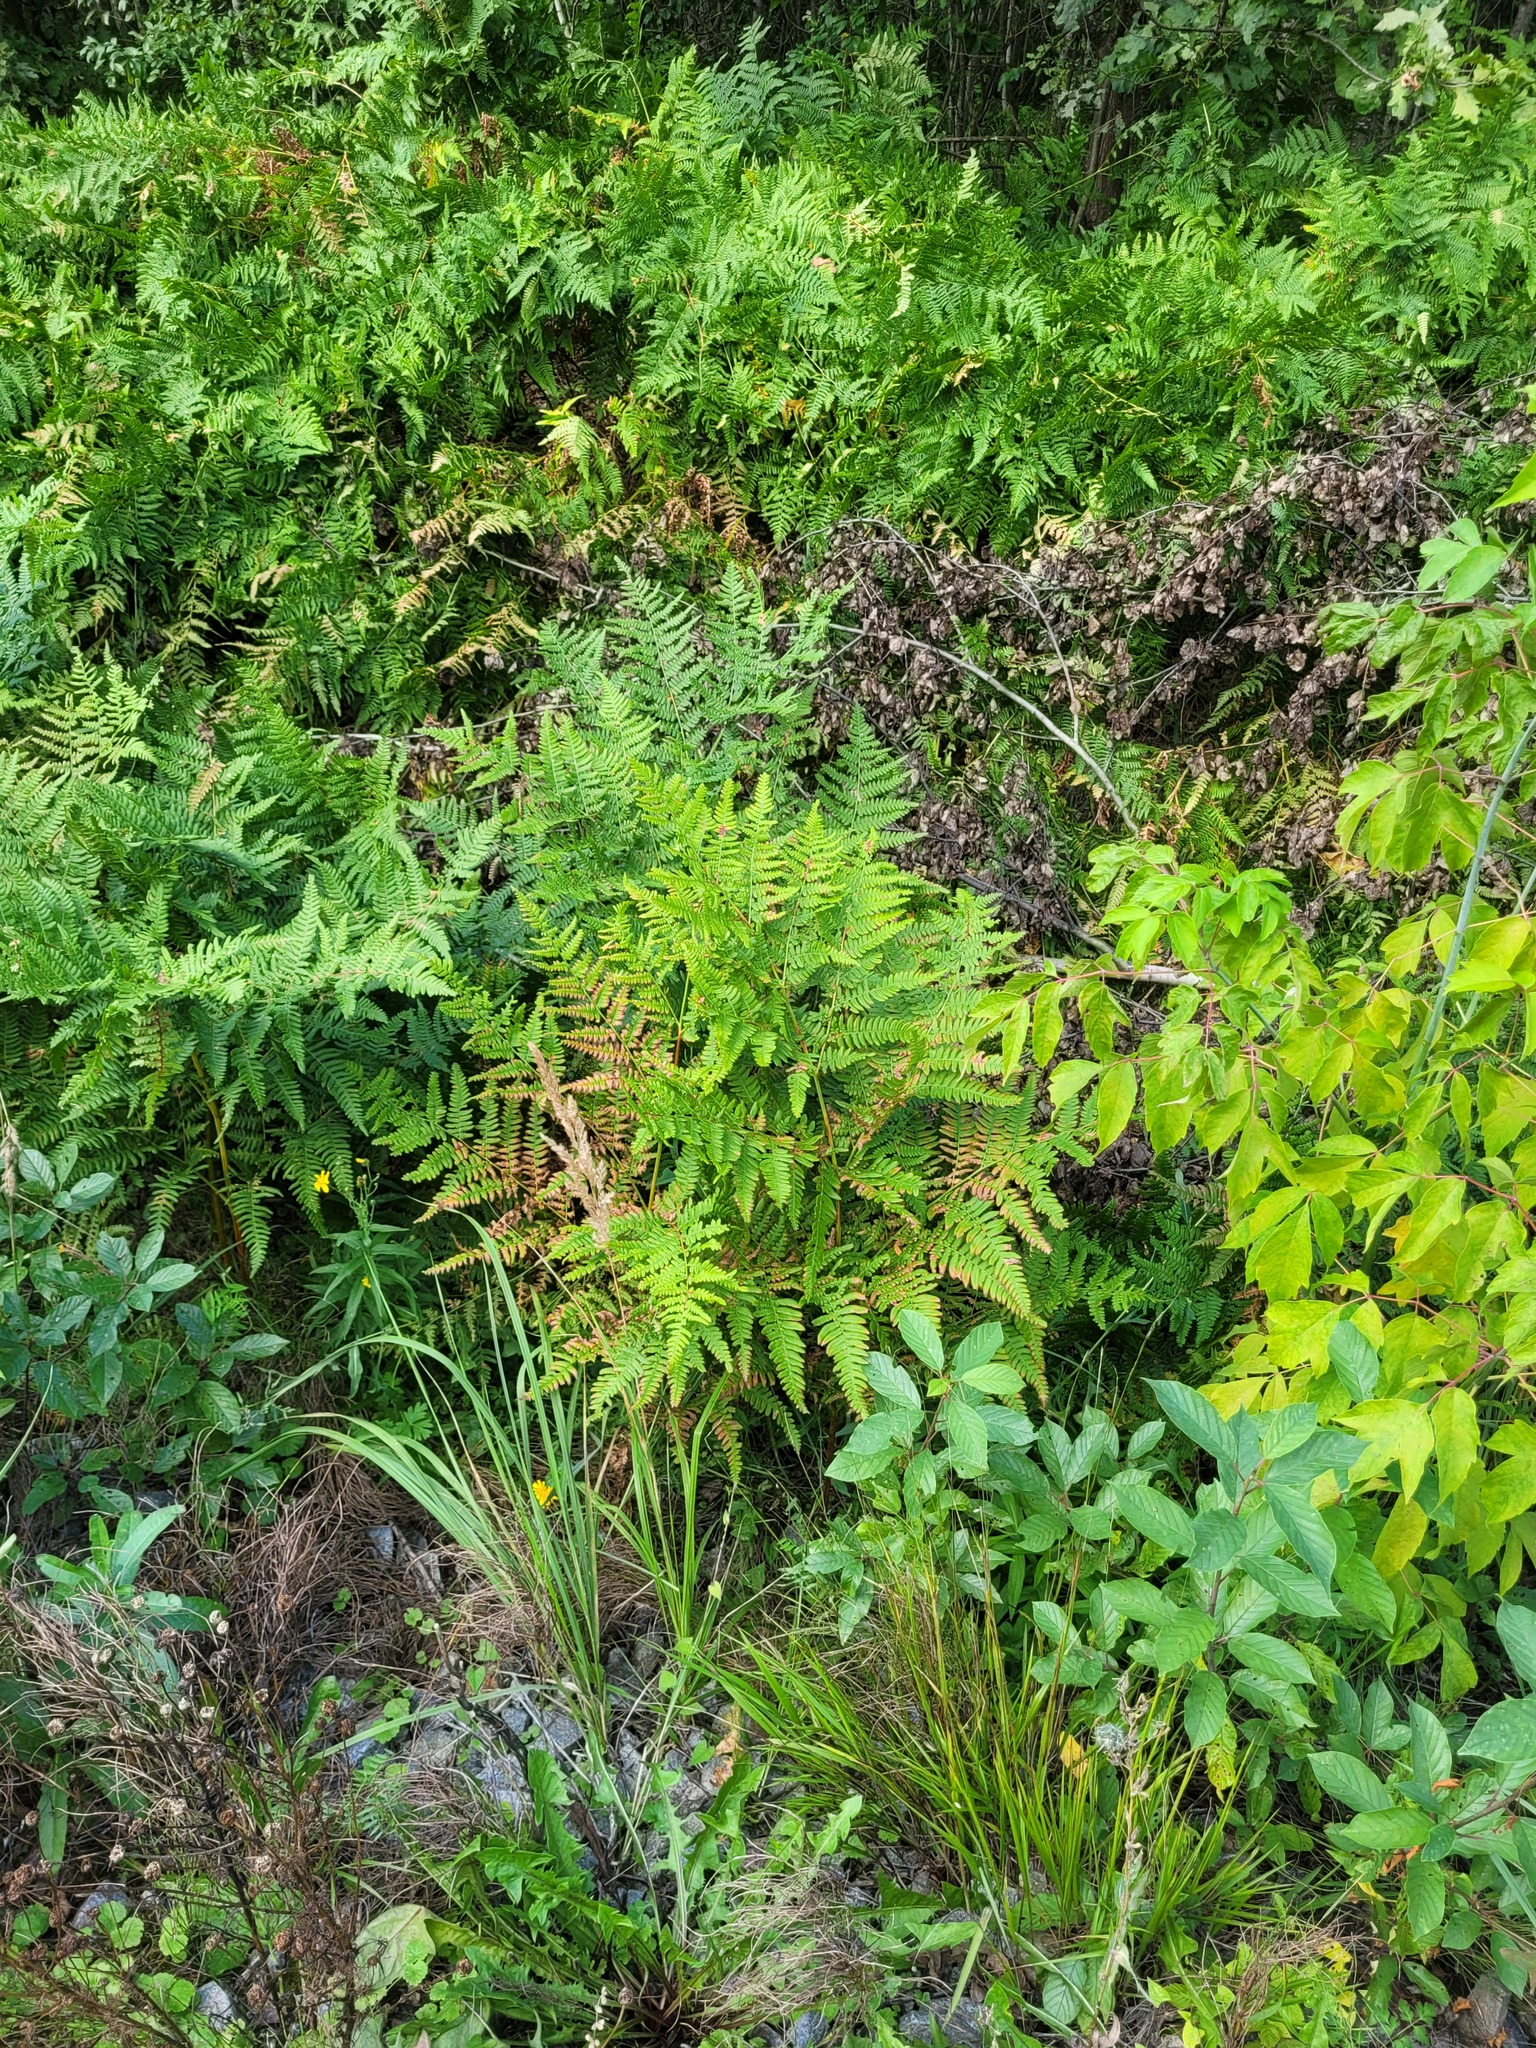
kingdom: Plantae
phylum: Tracheophyta
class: Polypodiopsida
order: Polypodiales
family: Dennstaedtiaceae
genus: Pteridium
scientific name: Pteridium aquilinum
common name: Bracken
